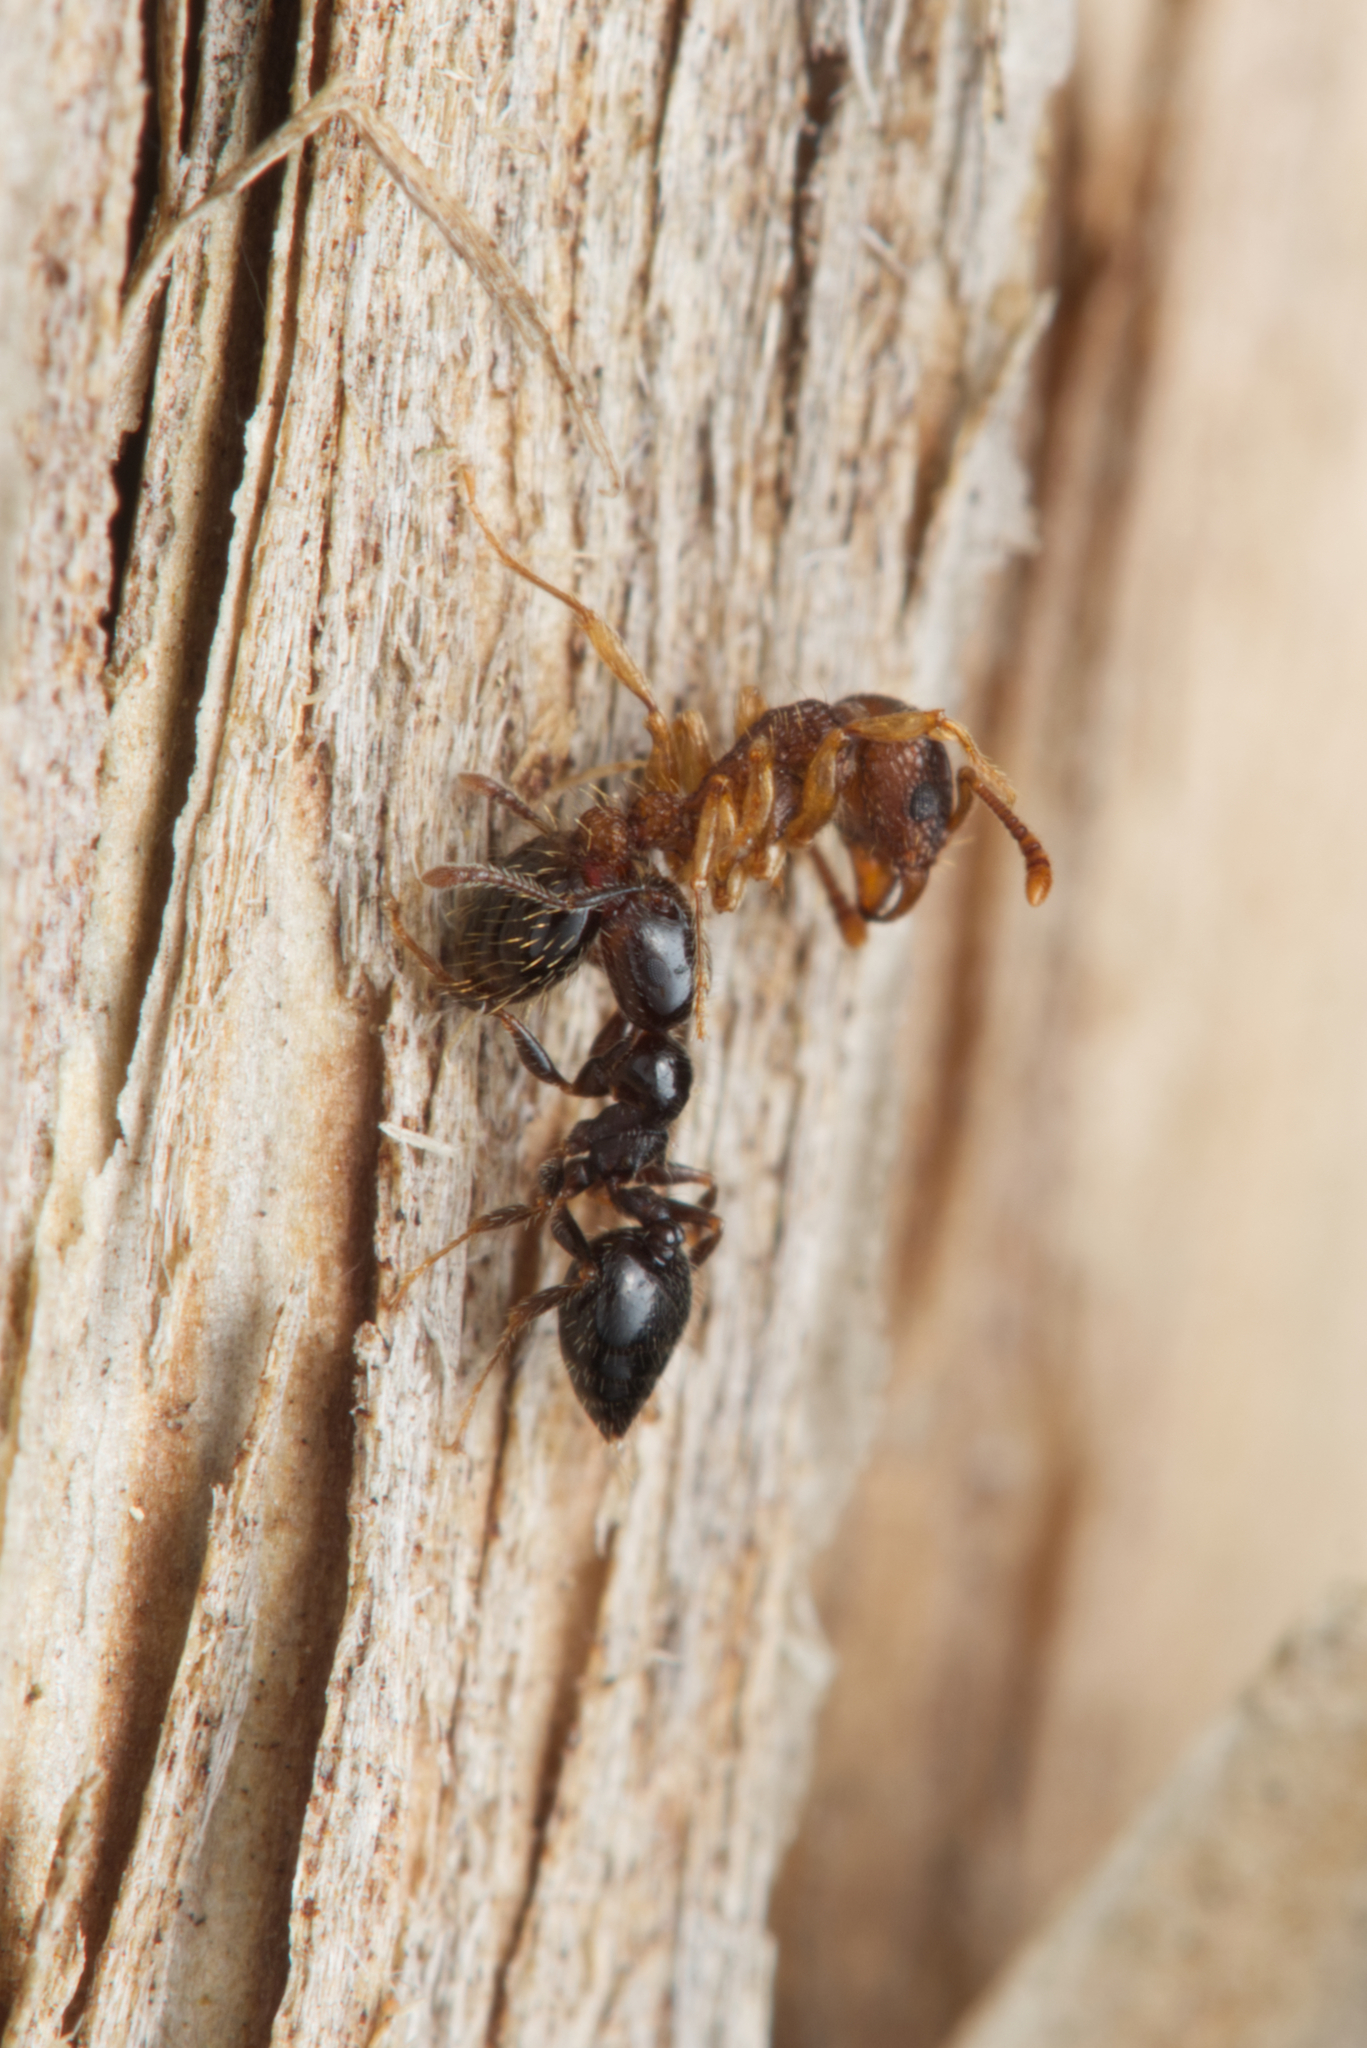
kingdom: Animalia
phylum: Arthropoda
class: Insecta
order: Hymenoptera
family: Formicidae
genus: Tetramorium
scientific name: Tetramorium bicarinatum
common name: Guinea ant
